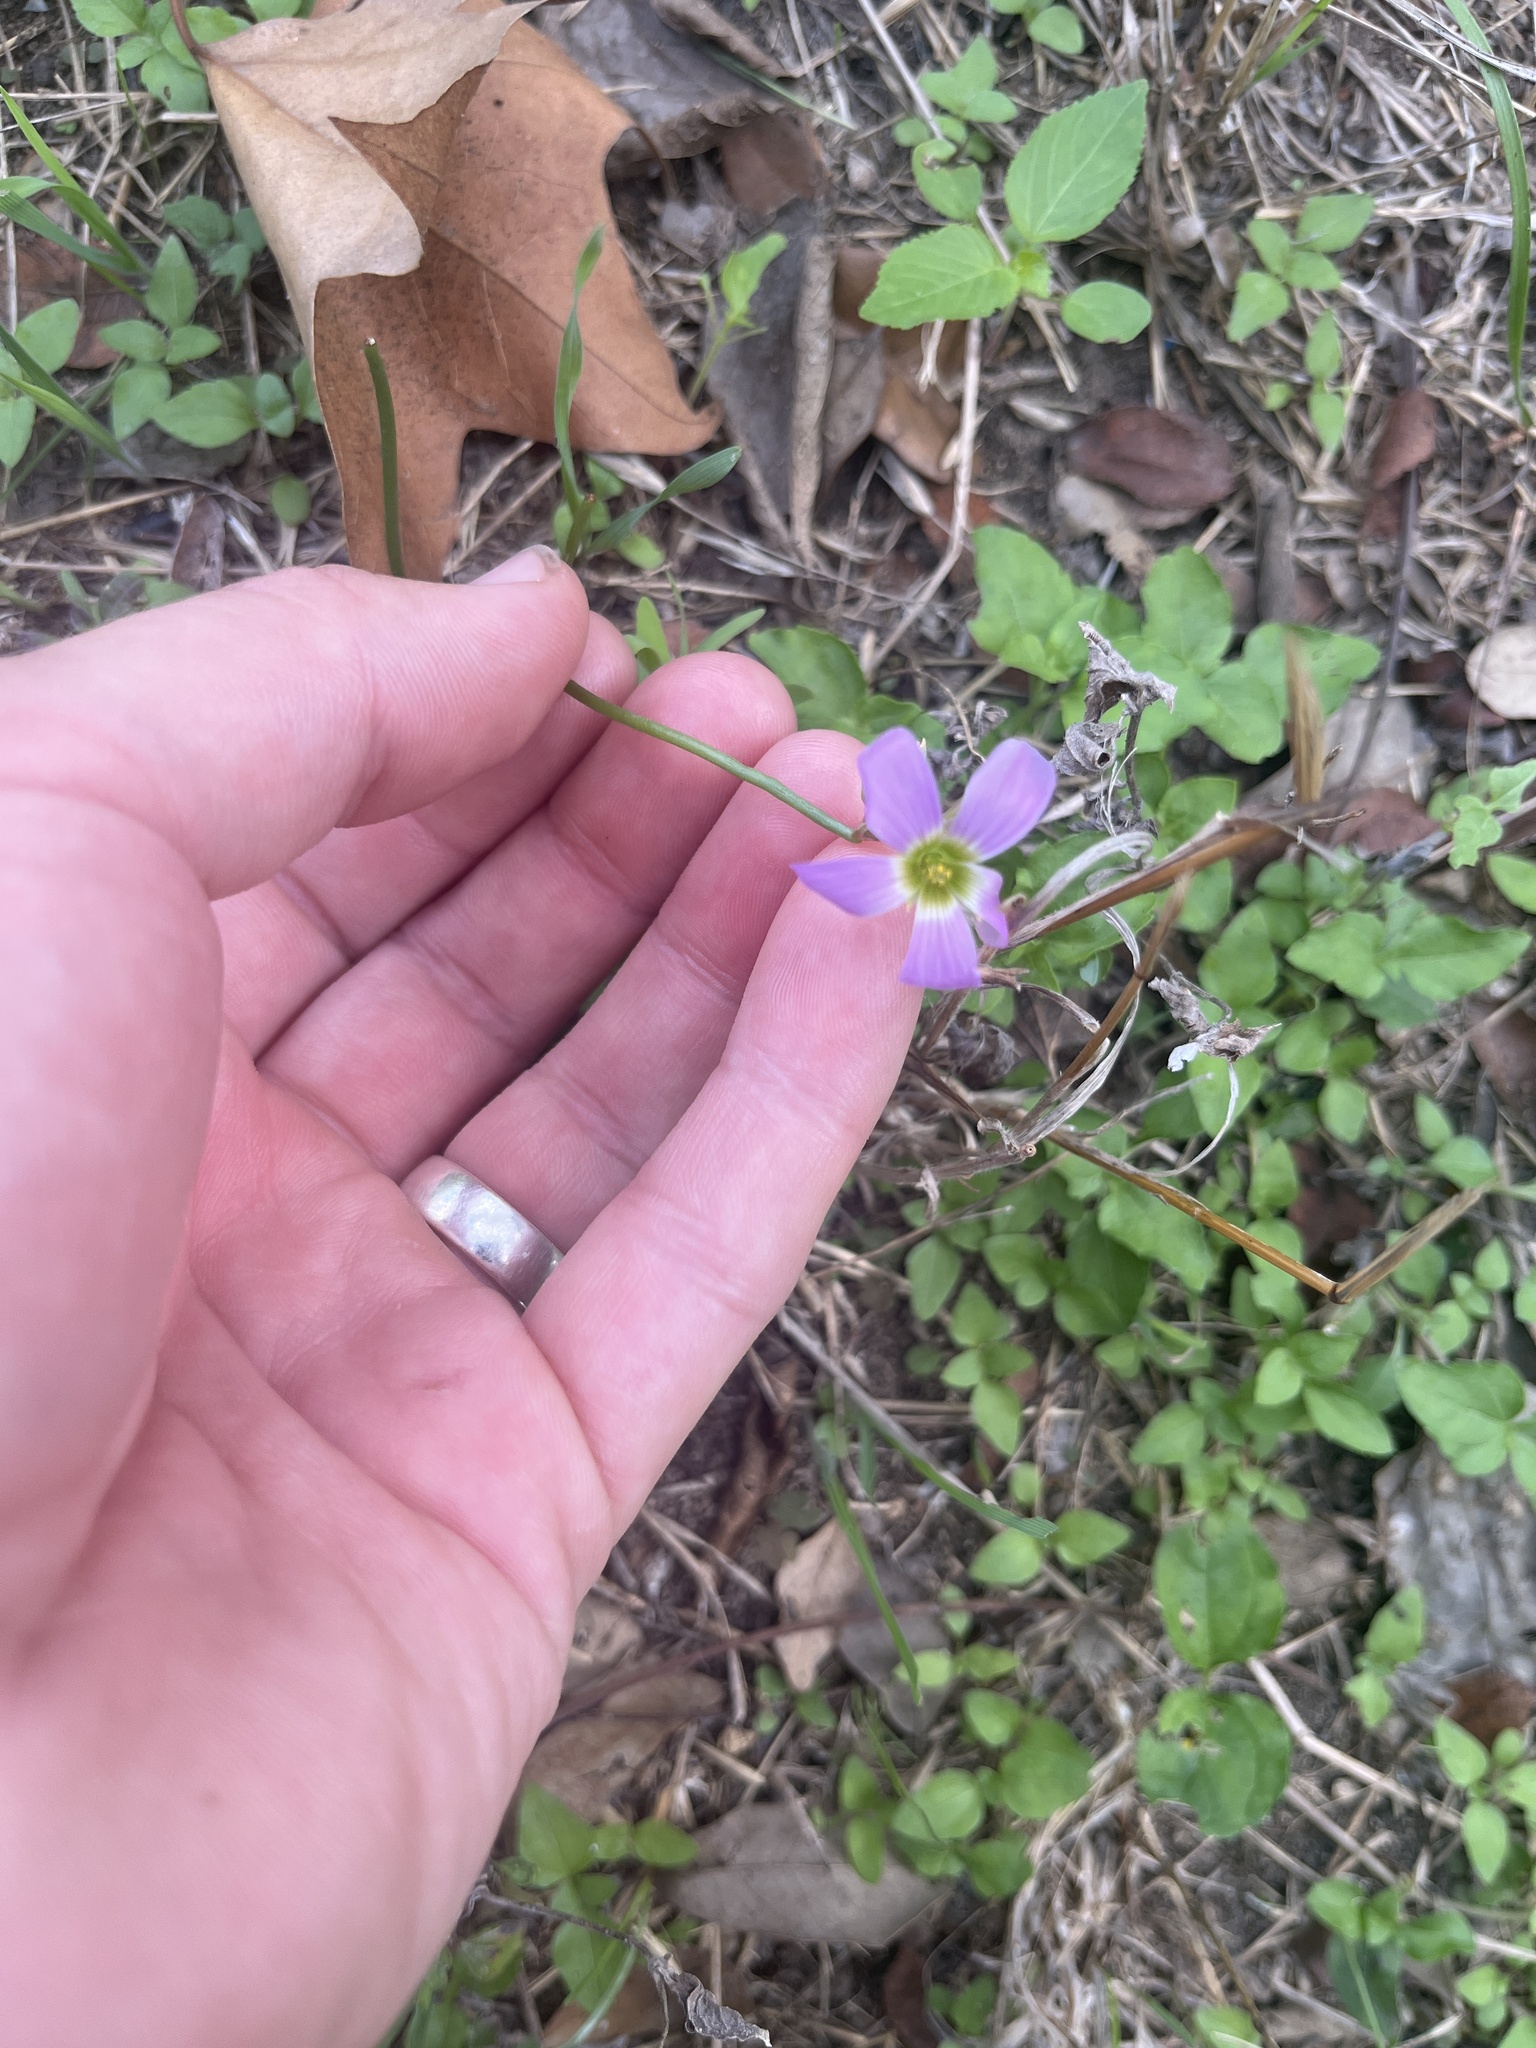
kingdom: Plantae
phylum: Tracheophyta
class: Magnoliopsida
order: Oxalidales
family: Oxalidaceae
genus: Oxalis
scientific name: Oxalis drummondii
